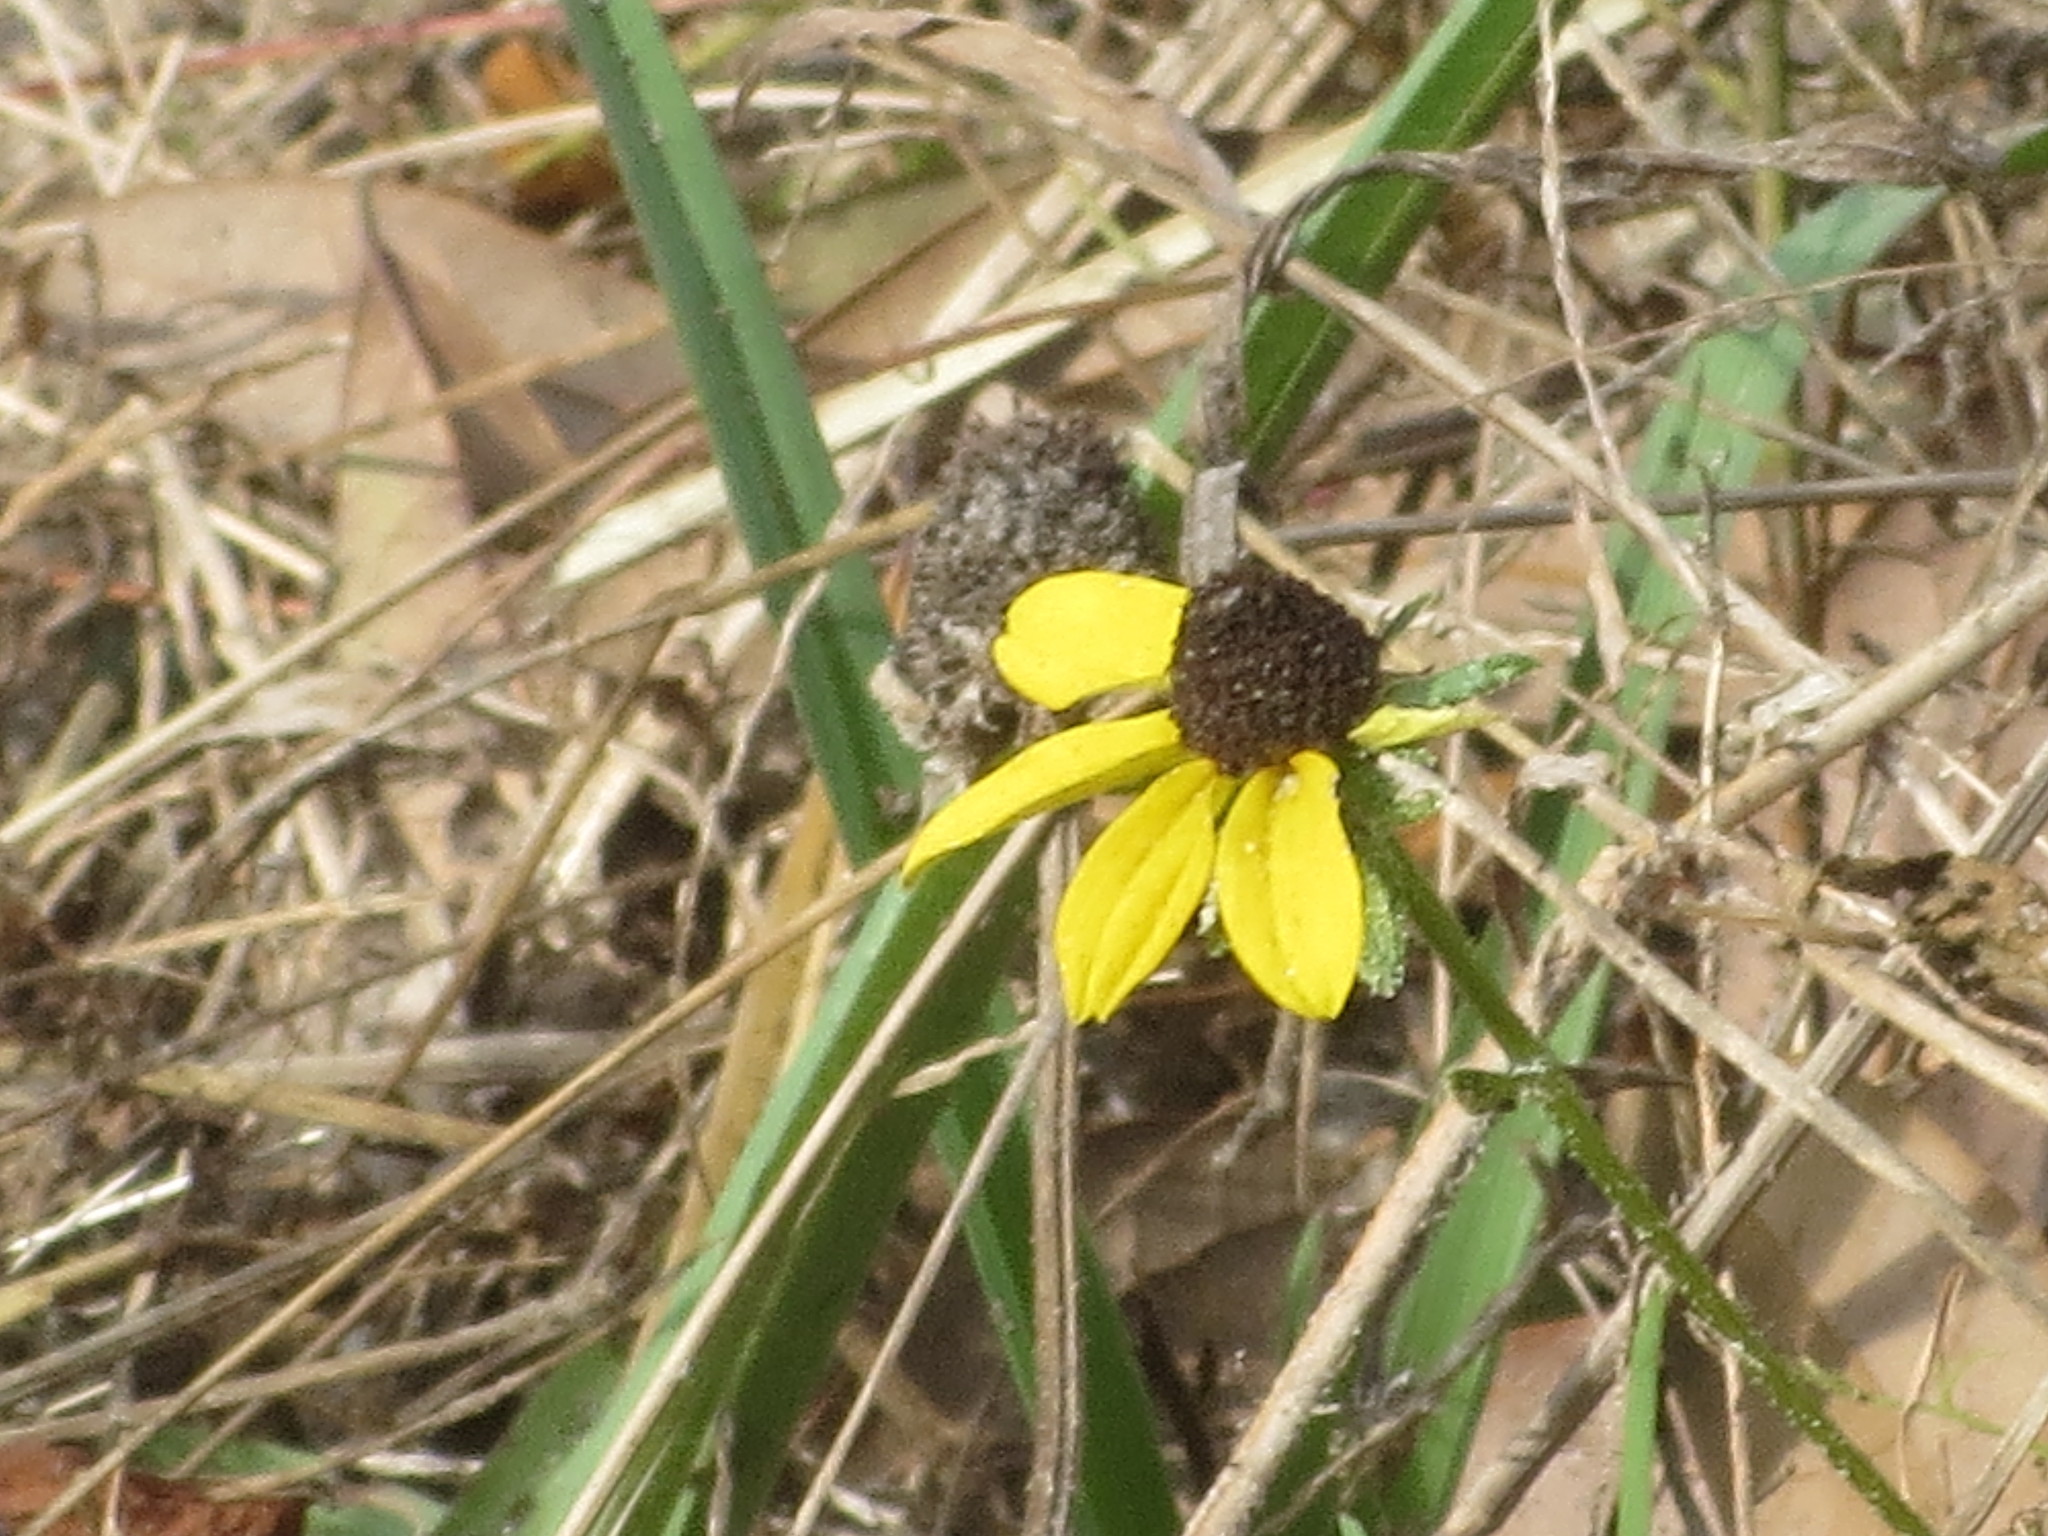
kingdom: Plantae
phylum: Tracheophyta
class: Magnoliopsida
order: Asterales
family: Asteraceae
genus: Rudbeckia
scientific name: Rudbeckia hirta
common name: Black-eyed-susan
